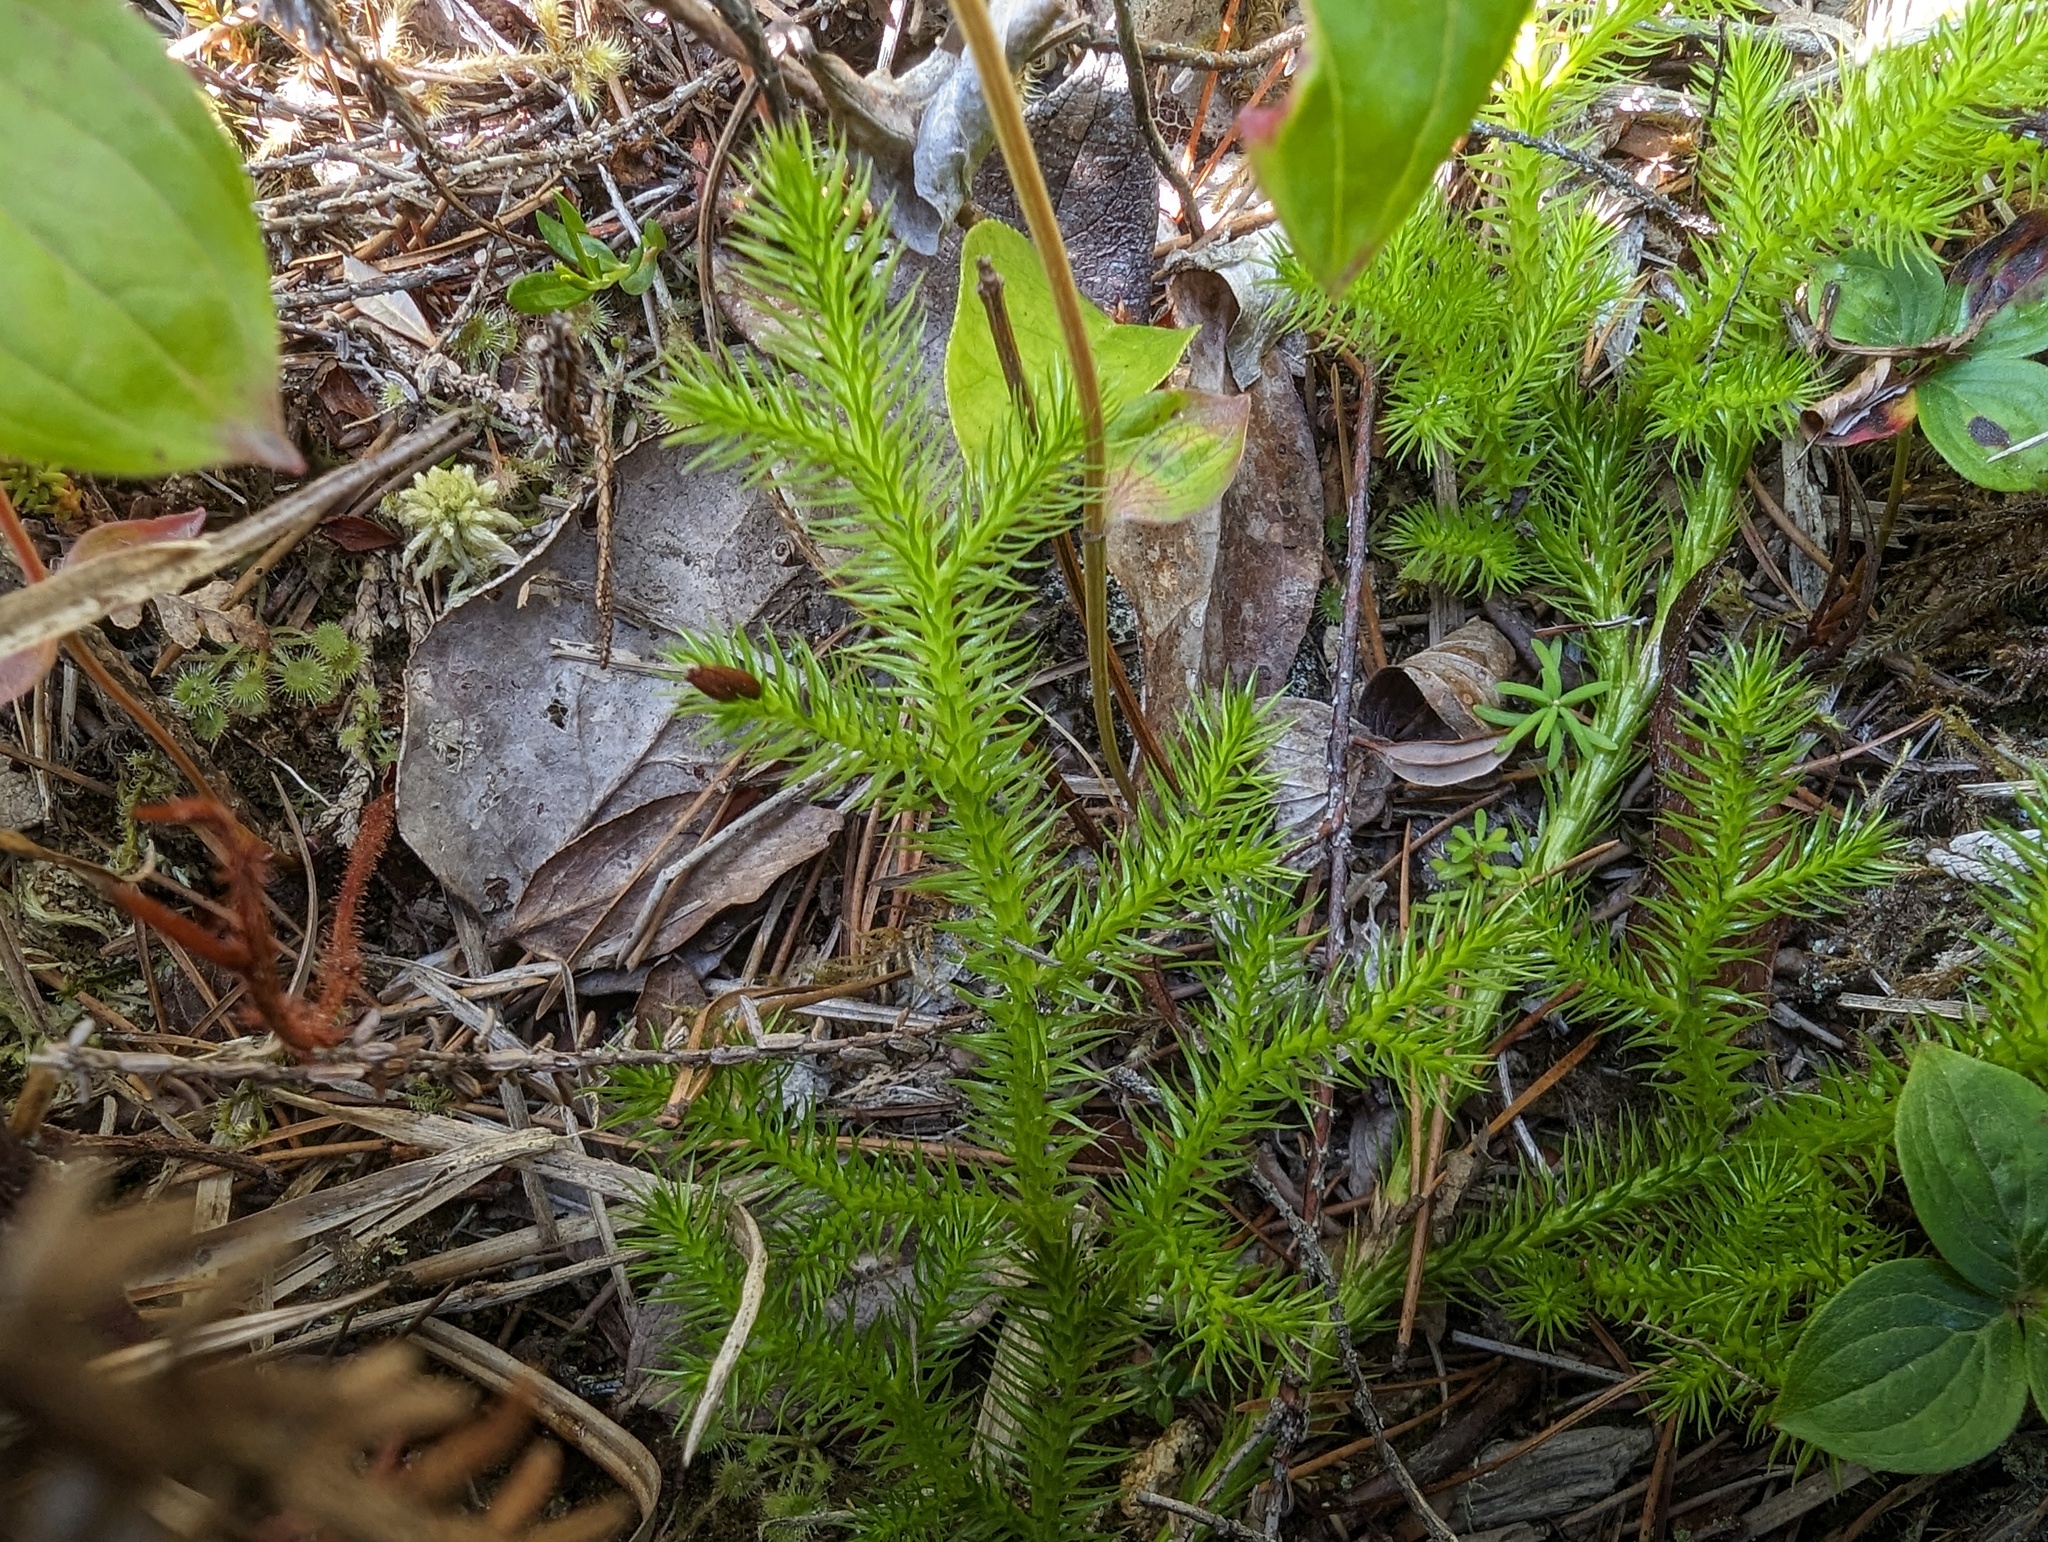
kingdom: Plantae
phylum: Tracheophyta
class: Lycopodiopsida
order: Lycopodiales
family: Lycopodiaceae
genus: Lycopodium
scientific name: Lycopodium clavatum
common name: Stag's-horn clubmoss
